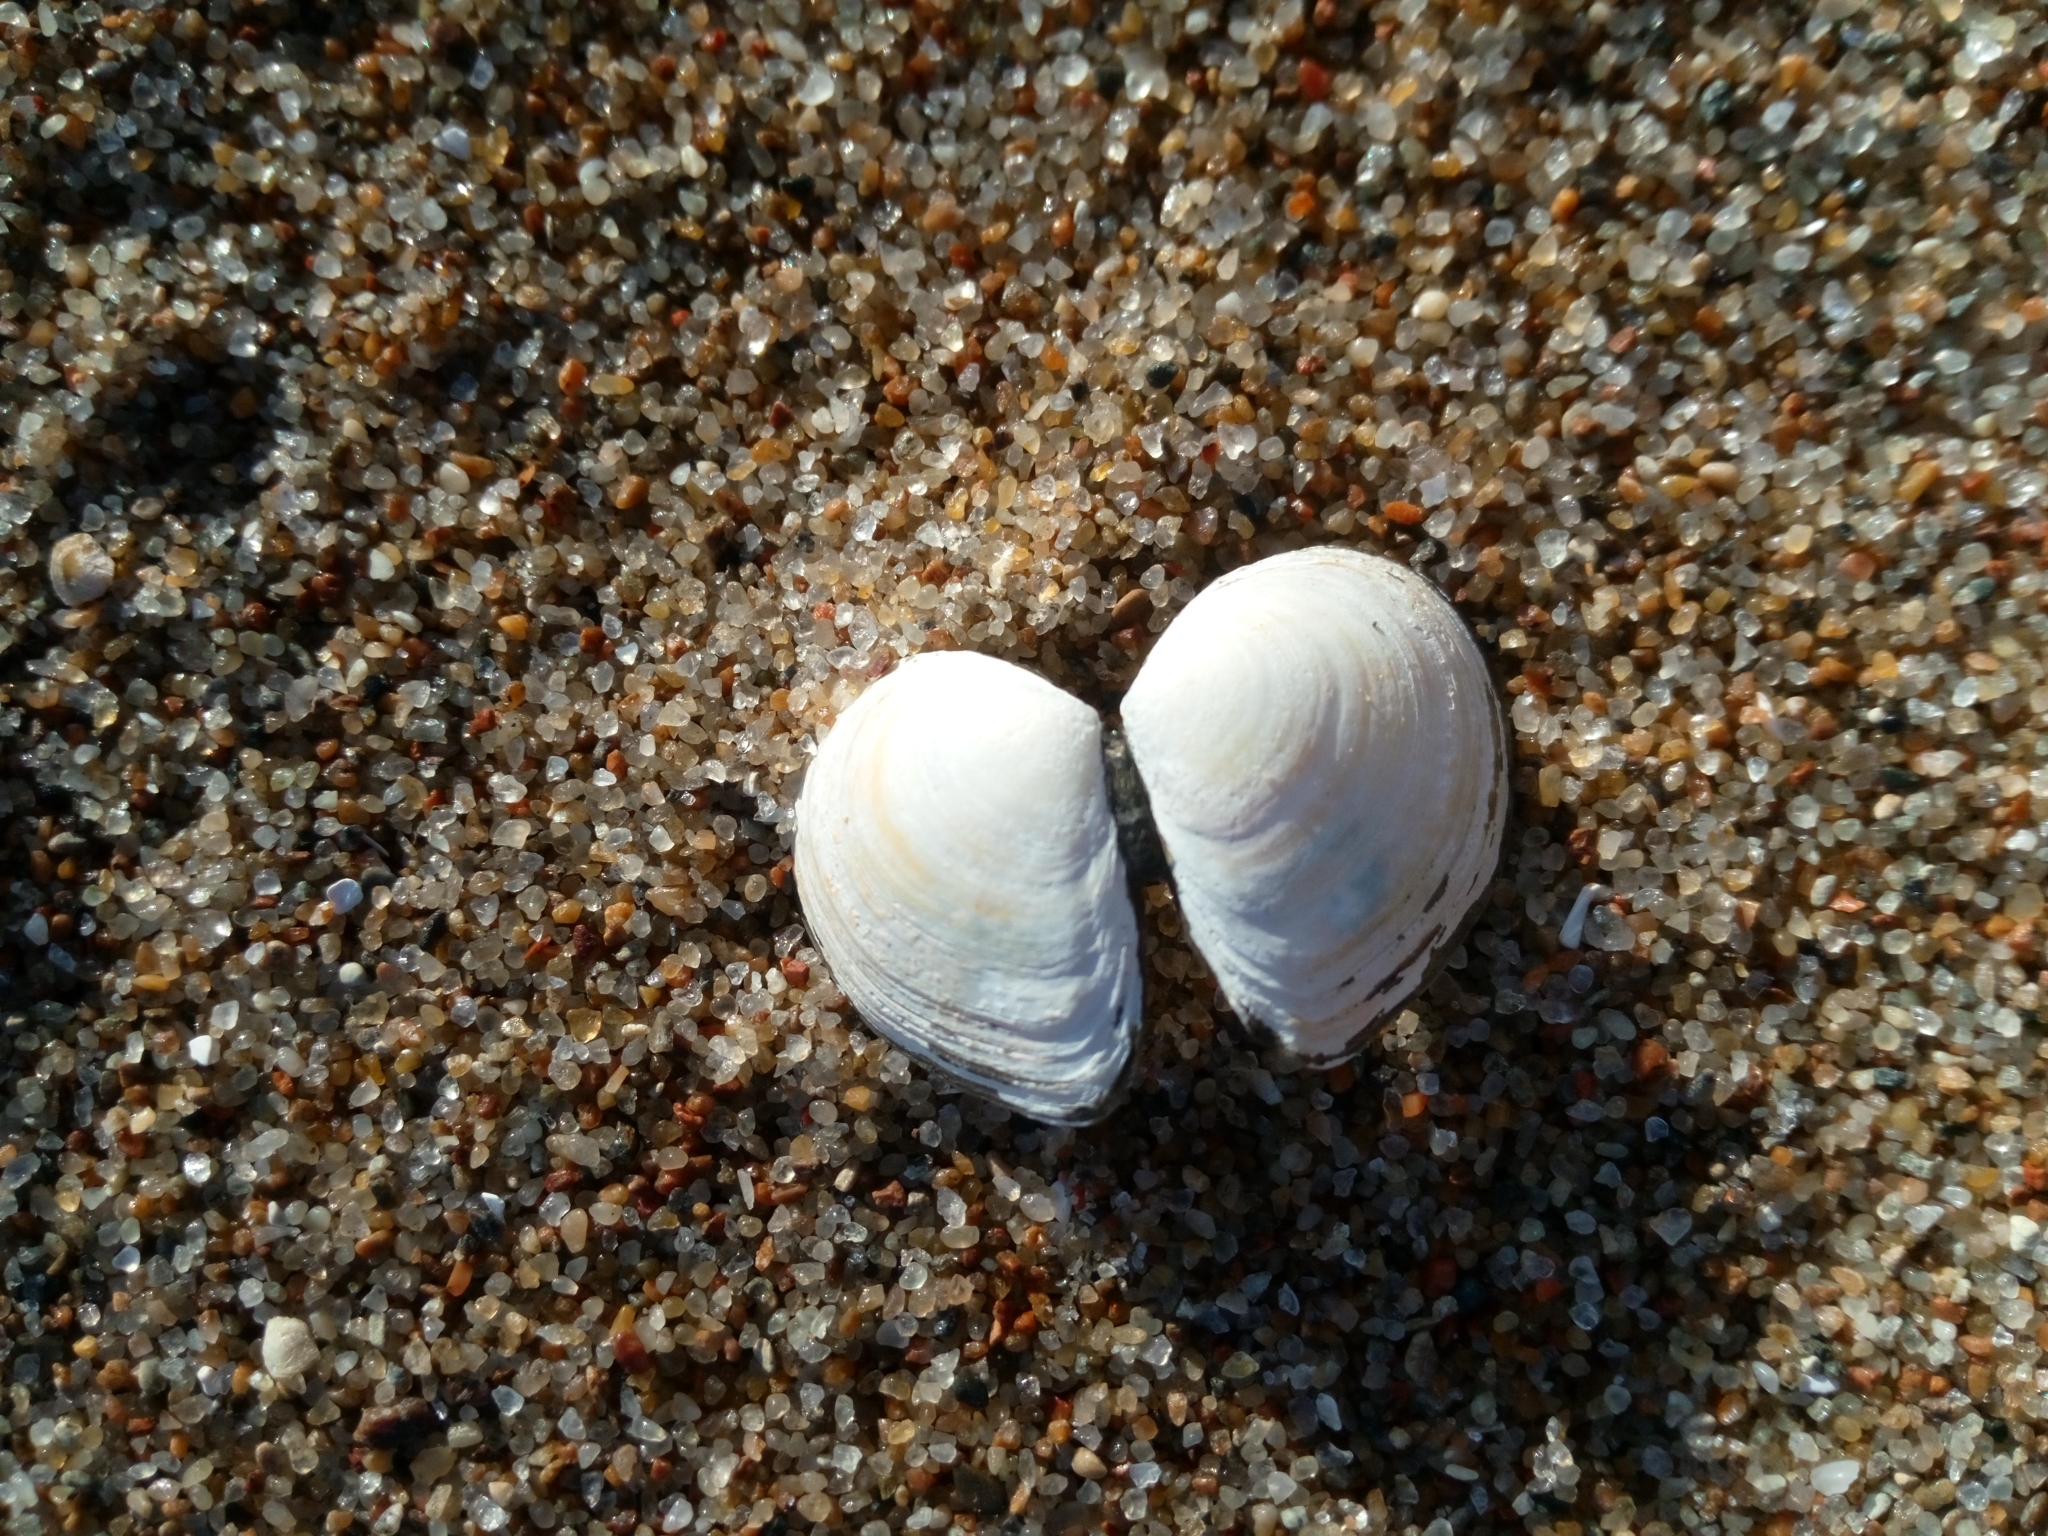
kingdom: Animalia
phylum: Mollusca
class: Bivalvia
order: Cardiida
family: Tellinidae
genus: Macoma
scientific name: Macoma balthica
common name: Baltic tellin
